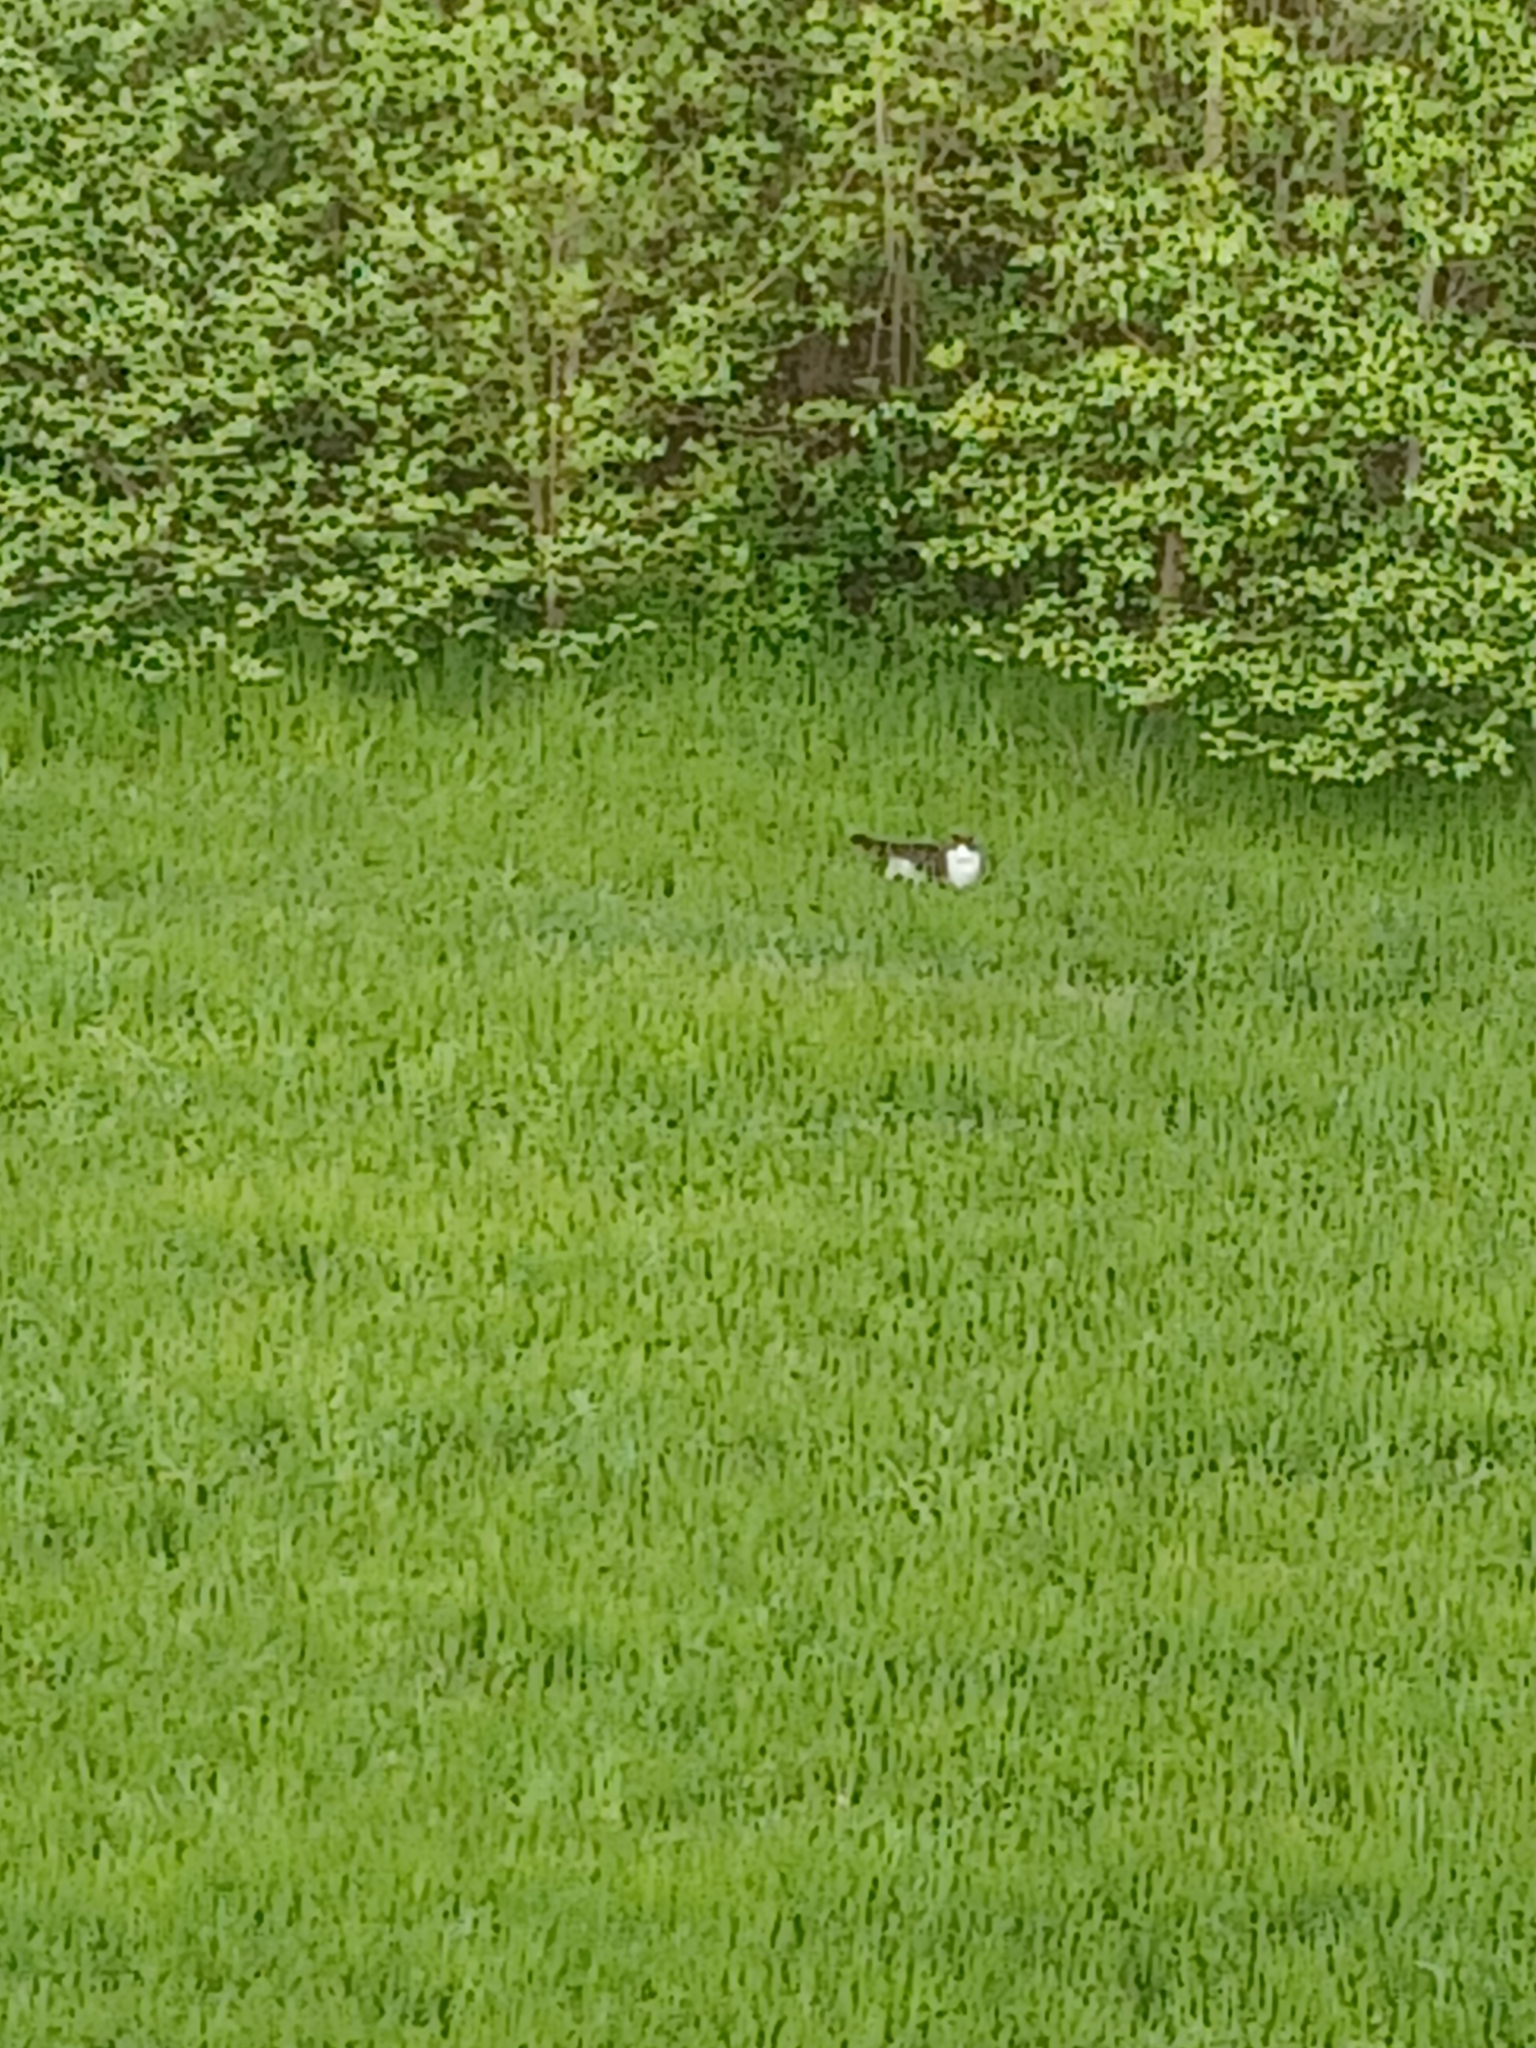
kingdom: Animalia
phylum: Chordata
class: Mammalia
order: Carnivora
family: Felidae
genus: Felis
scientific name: Felis catus
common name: Domestic cat
